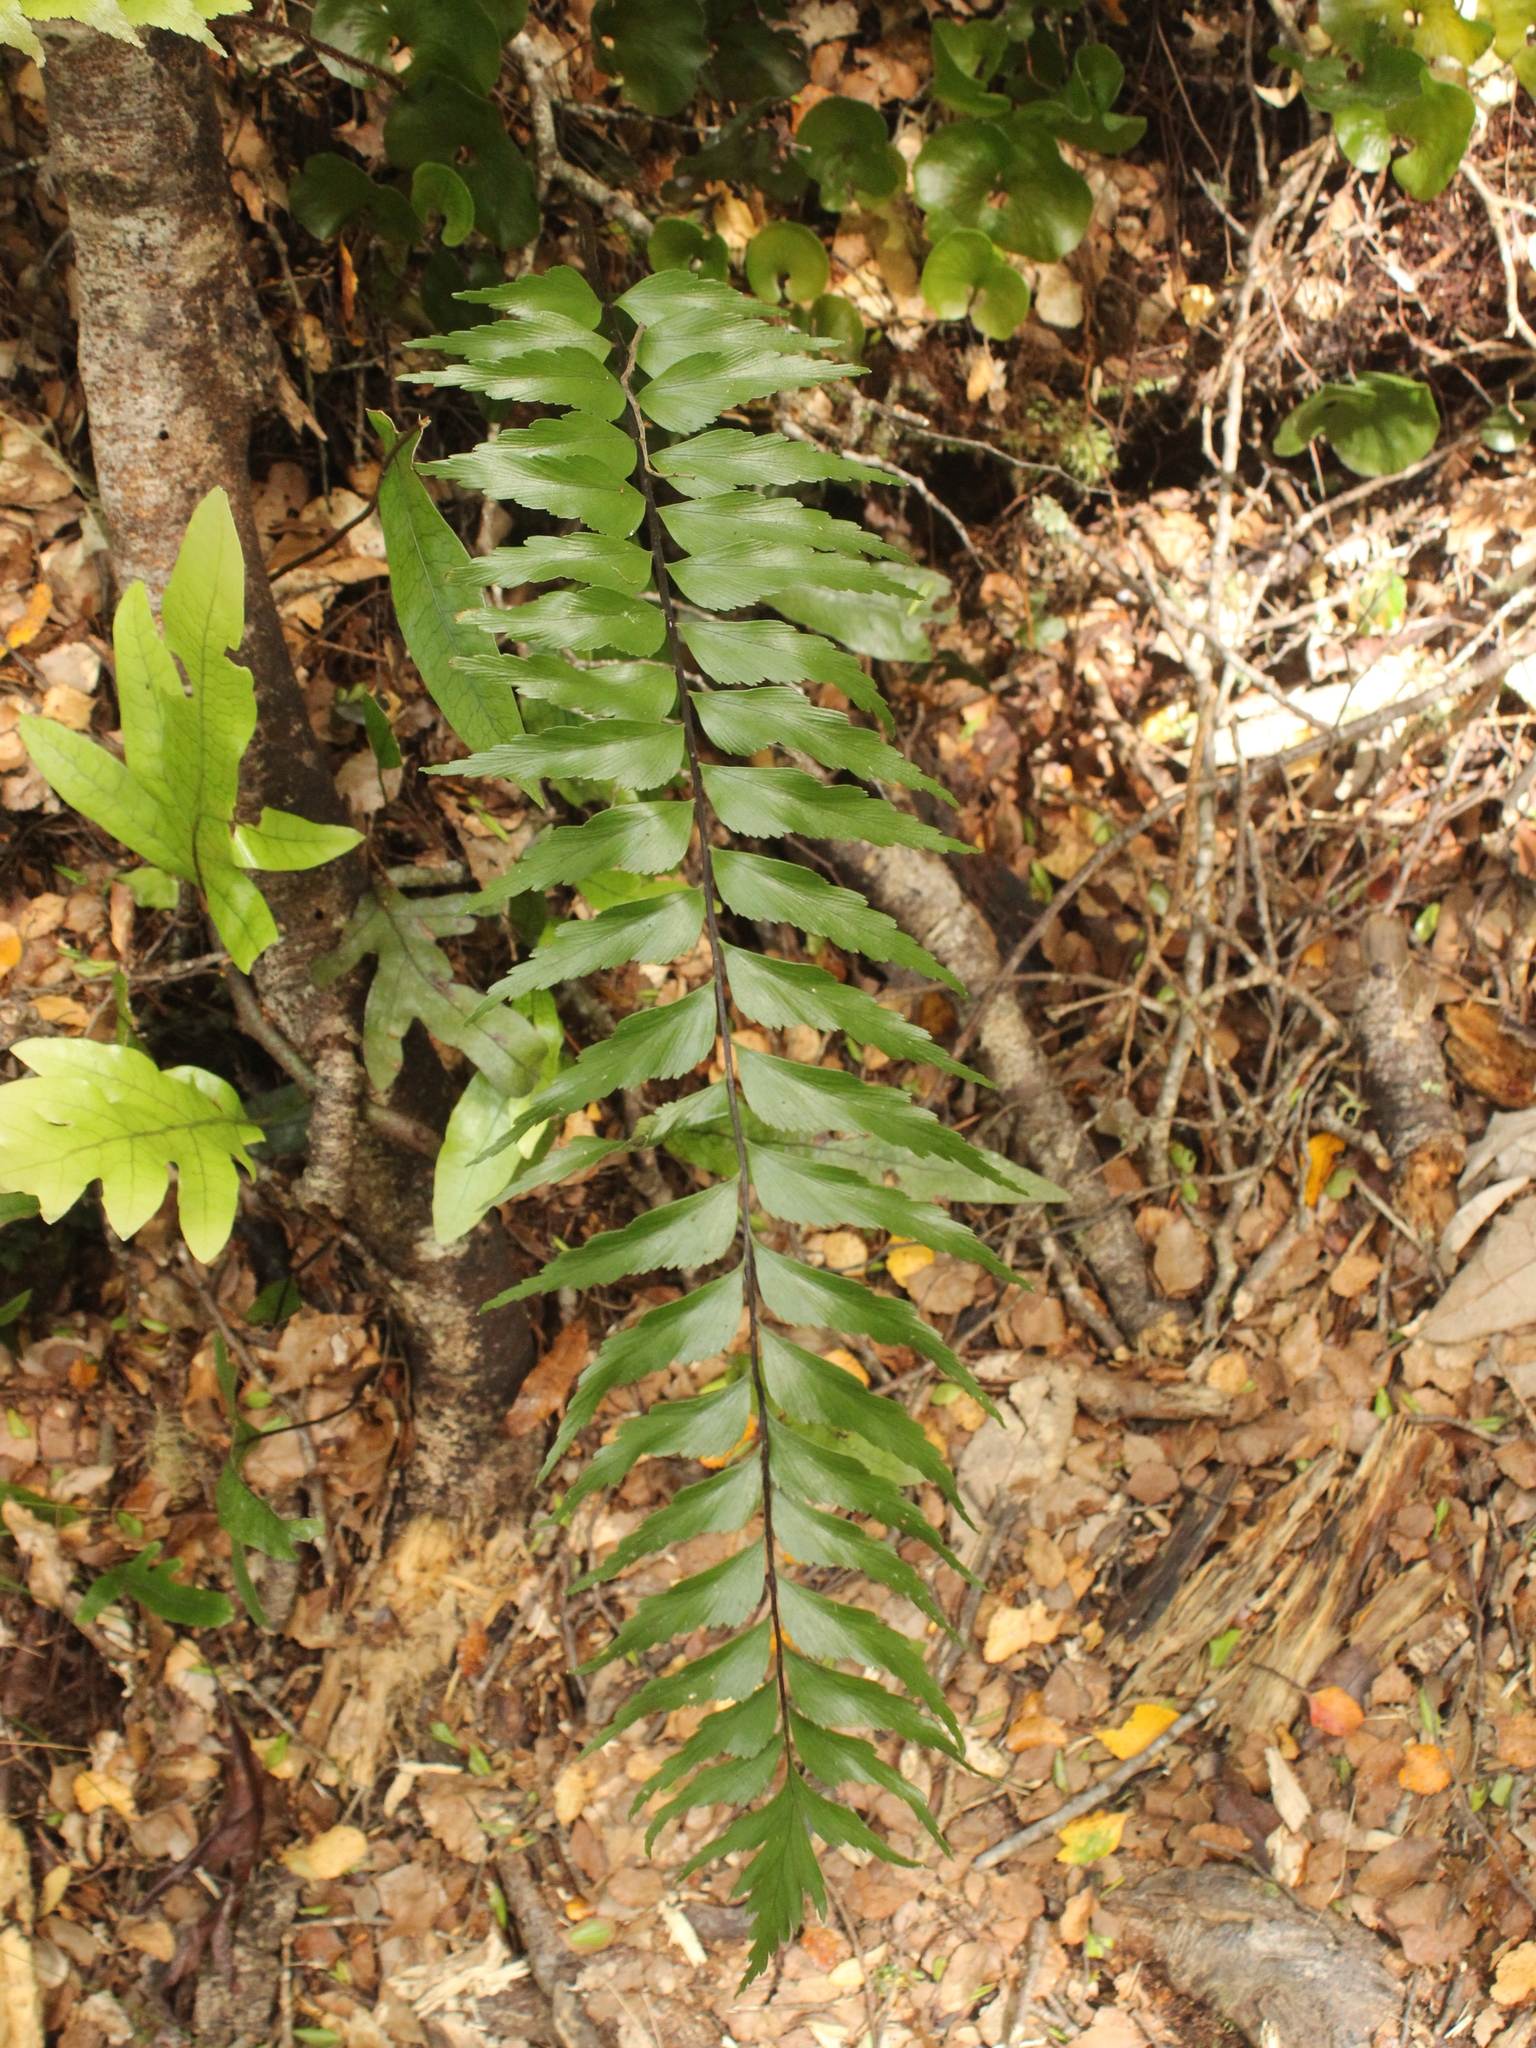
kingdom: Plantae
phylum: Tracheophyta
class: Polypodiopsida
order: Polypodiales
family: Aspleniaceae
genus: Asplenium
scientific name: Asplenium polyodon
